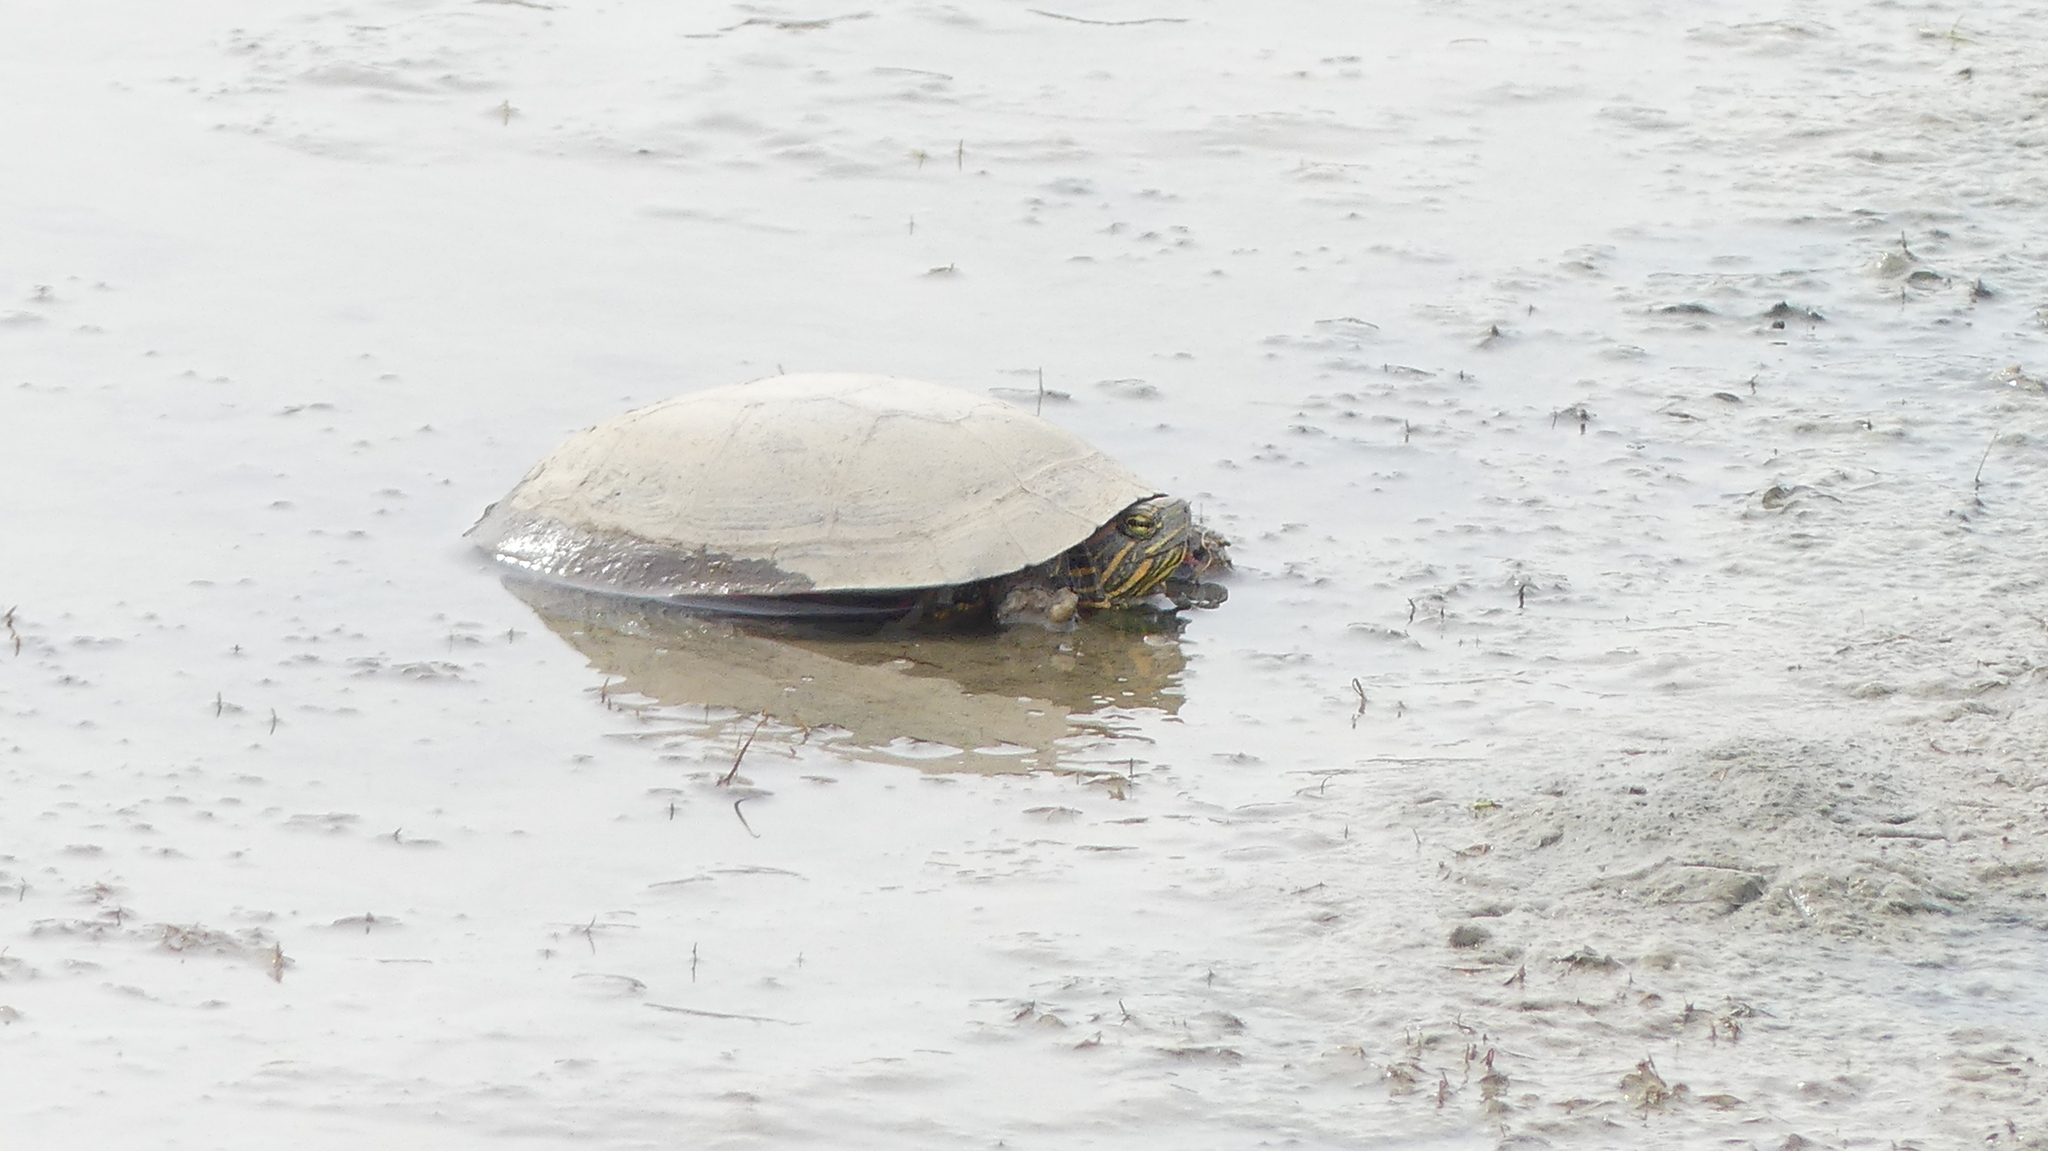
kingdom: Animalia
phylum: Chordata
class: Testudines
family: Emydidae
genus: Chrysemys
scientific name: Chrysemys picta
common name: Painted turtle
